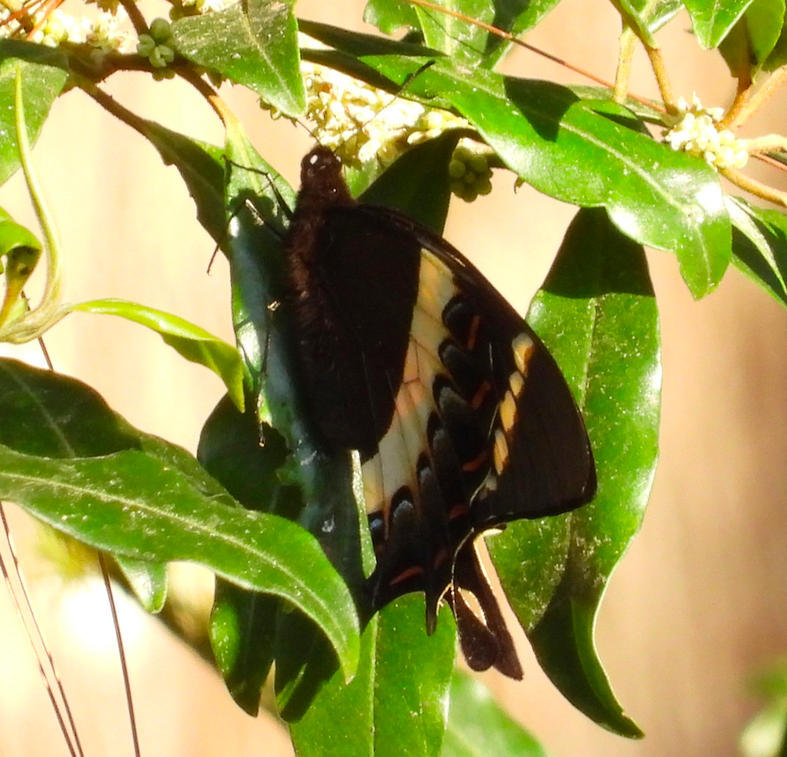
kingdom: Animalia
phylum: Arthropoda
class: Insecta
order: Lepidoptera
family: Papilionidae
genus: Papilio
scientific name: Papilio garamas
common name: Magnificent swallowtail
